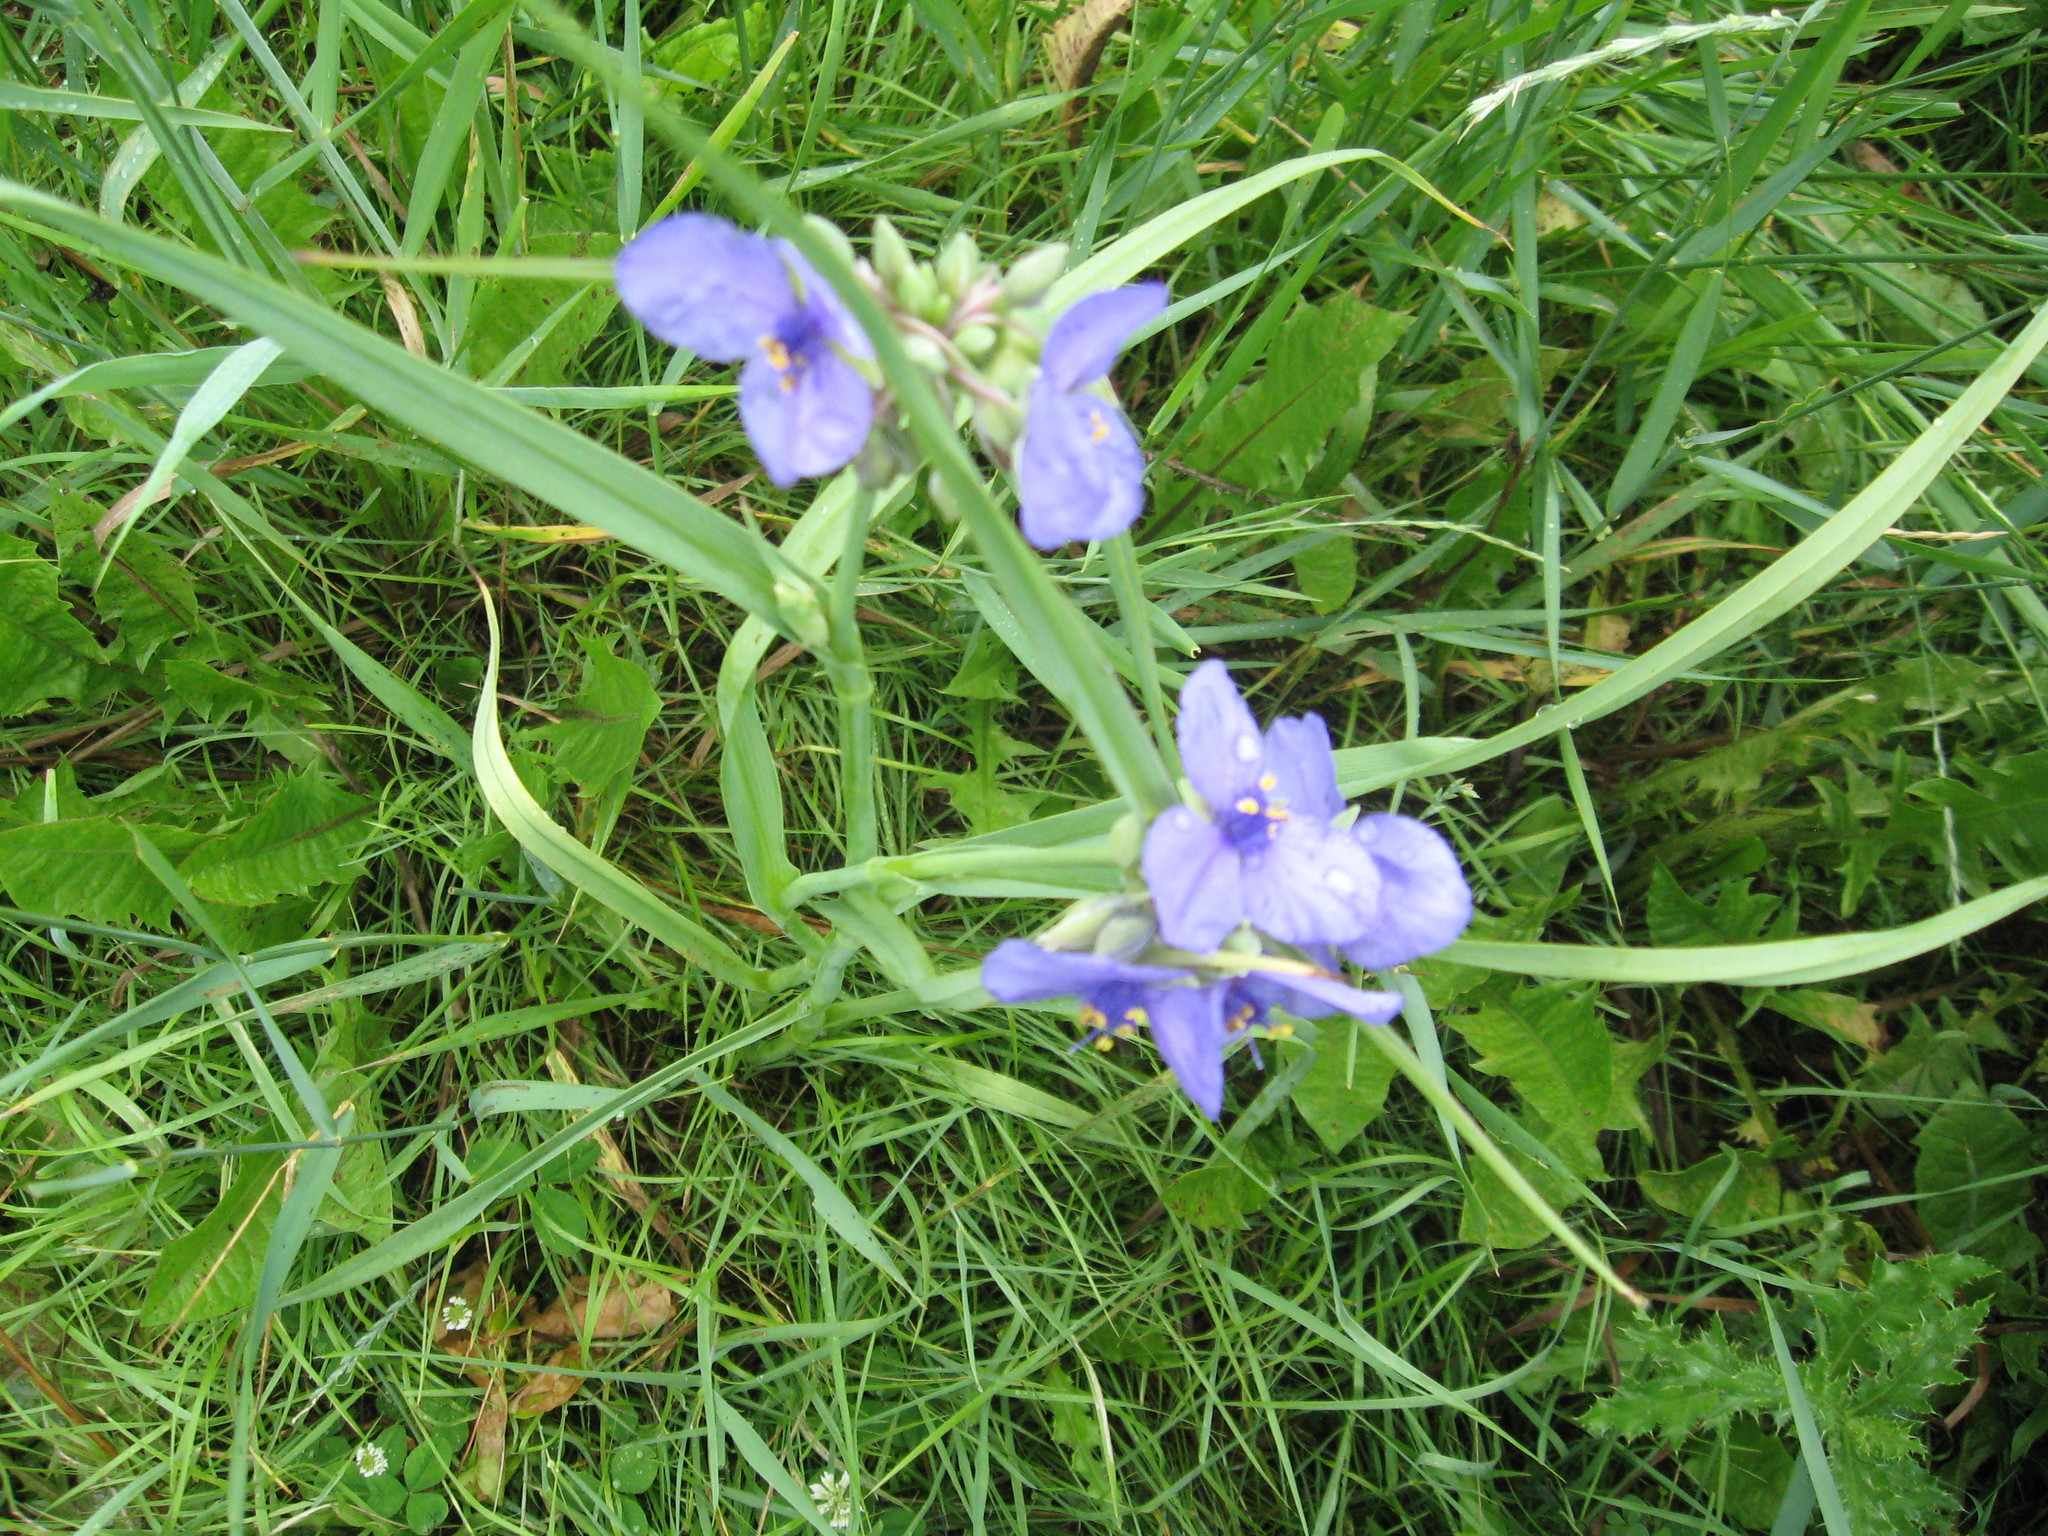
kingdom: Plantae
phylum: Tracheophyta
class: Liliopsida
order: Commelinales
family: Commelinaceae
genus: Tradescantia
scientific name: Tradescantia ohiensis
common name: Ohio spiderwort
